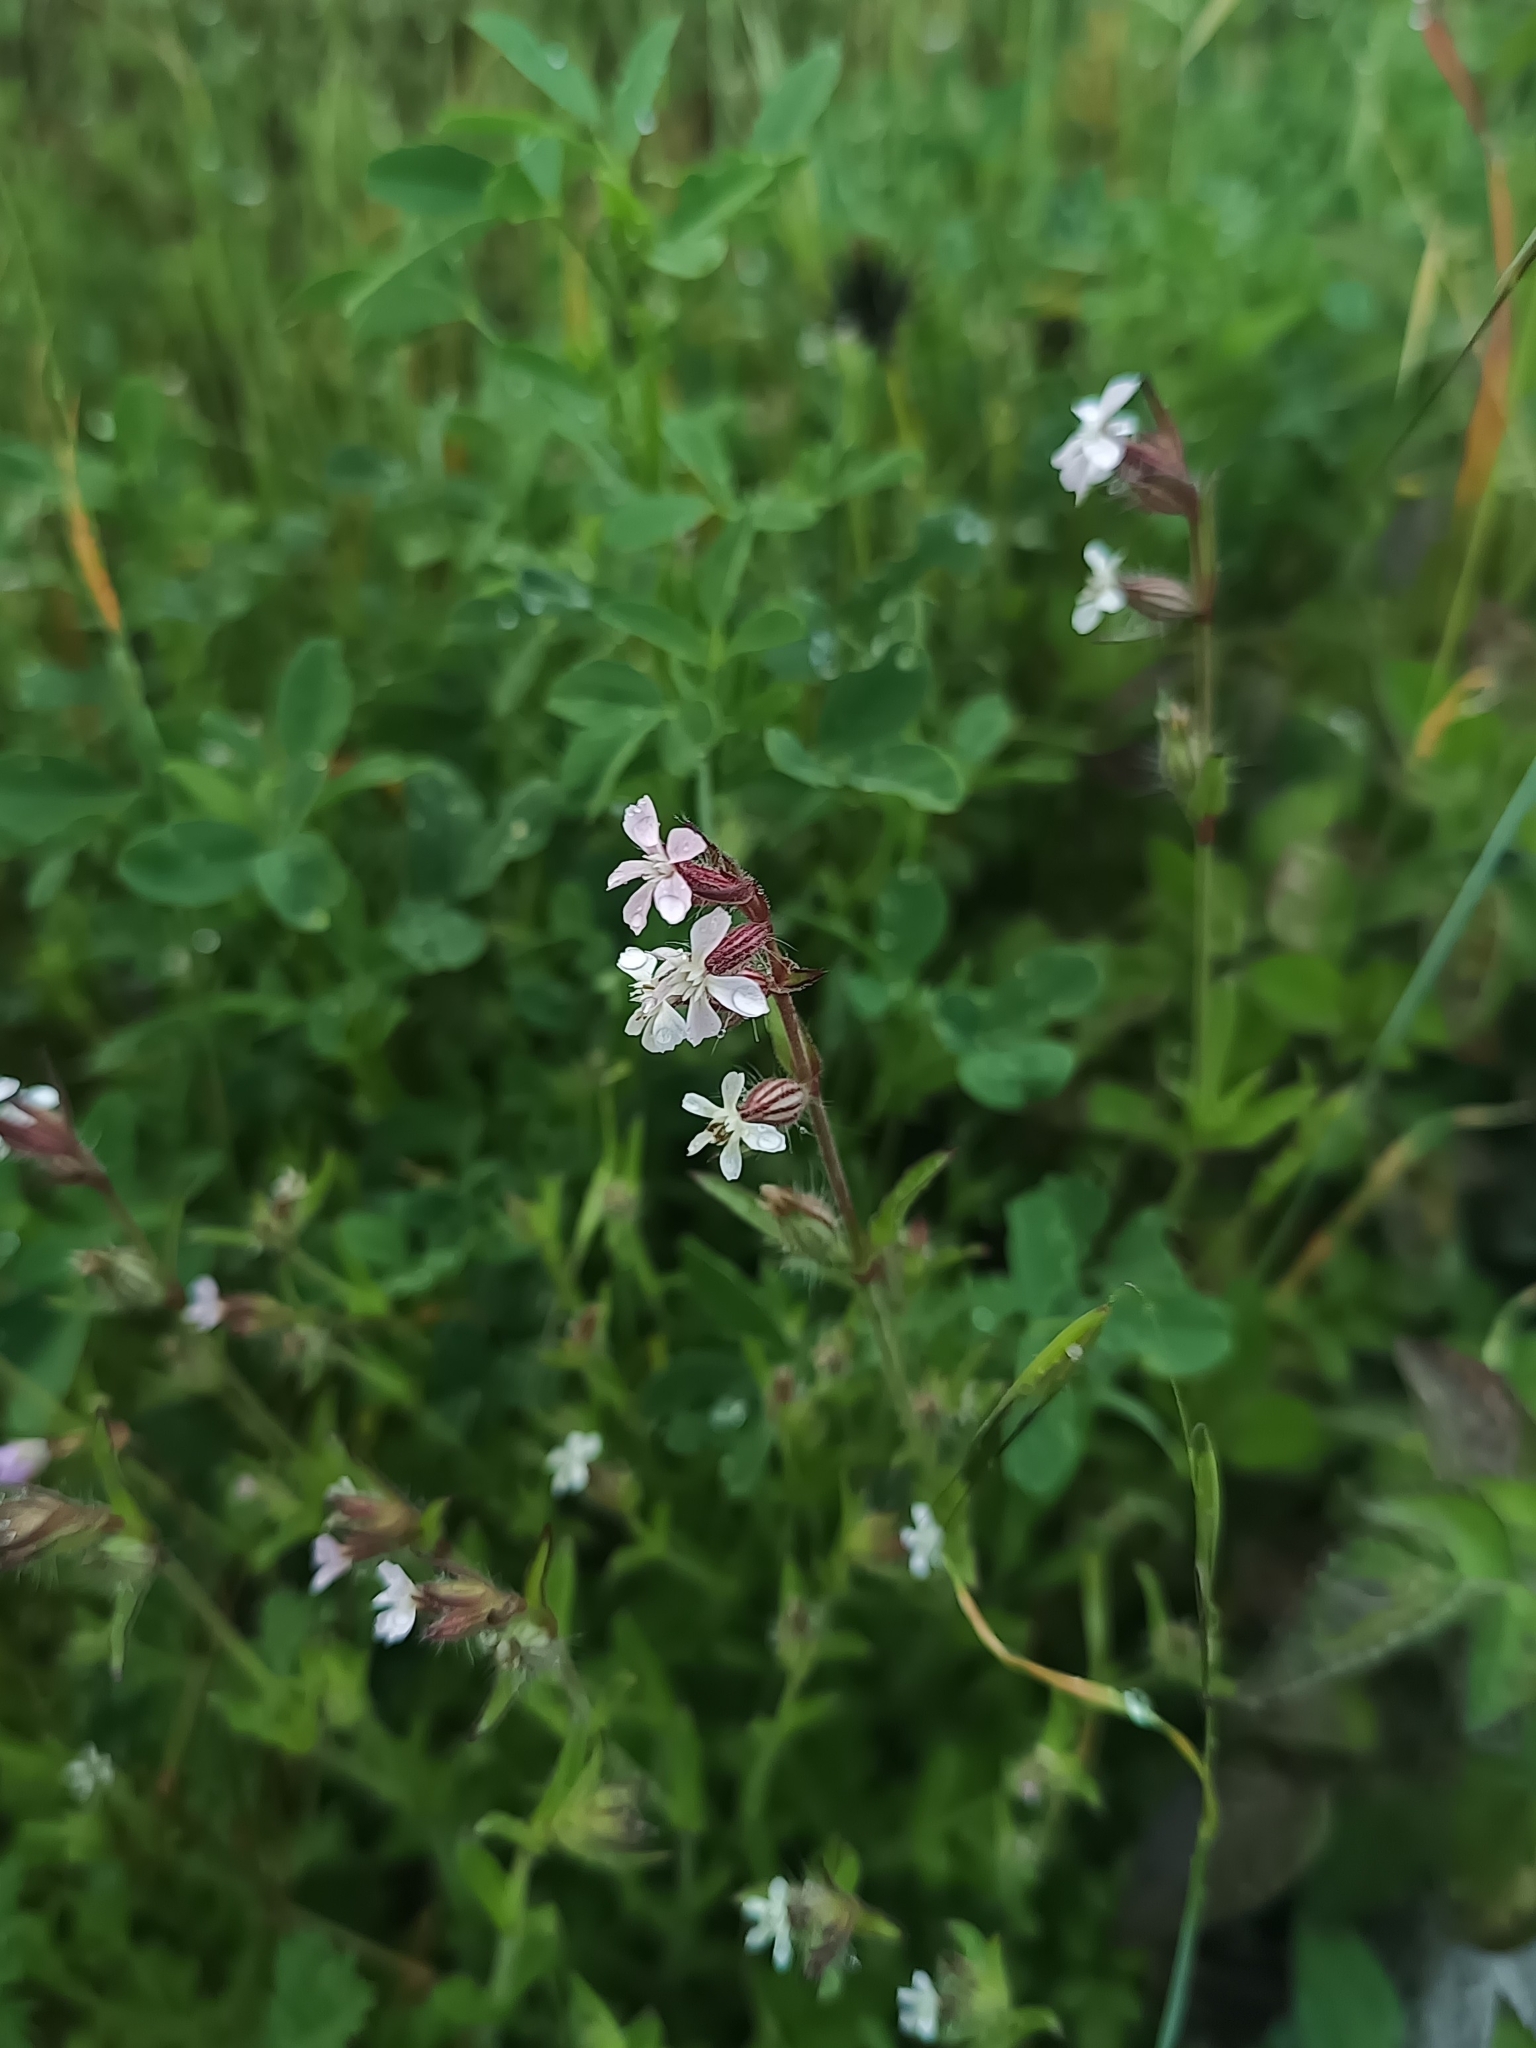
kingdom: Plantae
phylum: Tracheophyta
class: Magnoliopsida
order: Caryophyllales
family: Caryophyllaceae
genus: Silene
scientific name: Silene gallica
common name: Small-flowered catchfly
